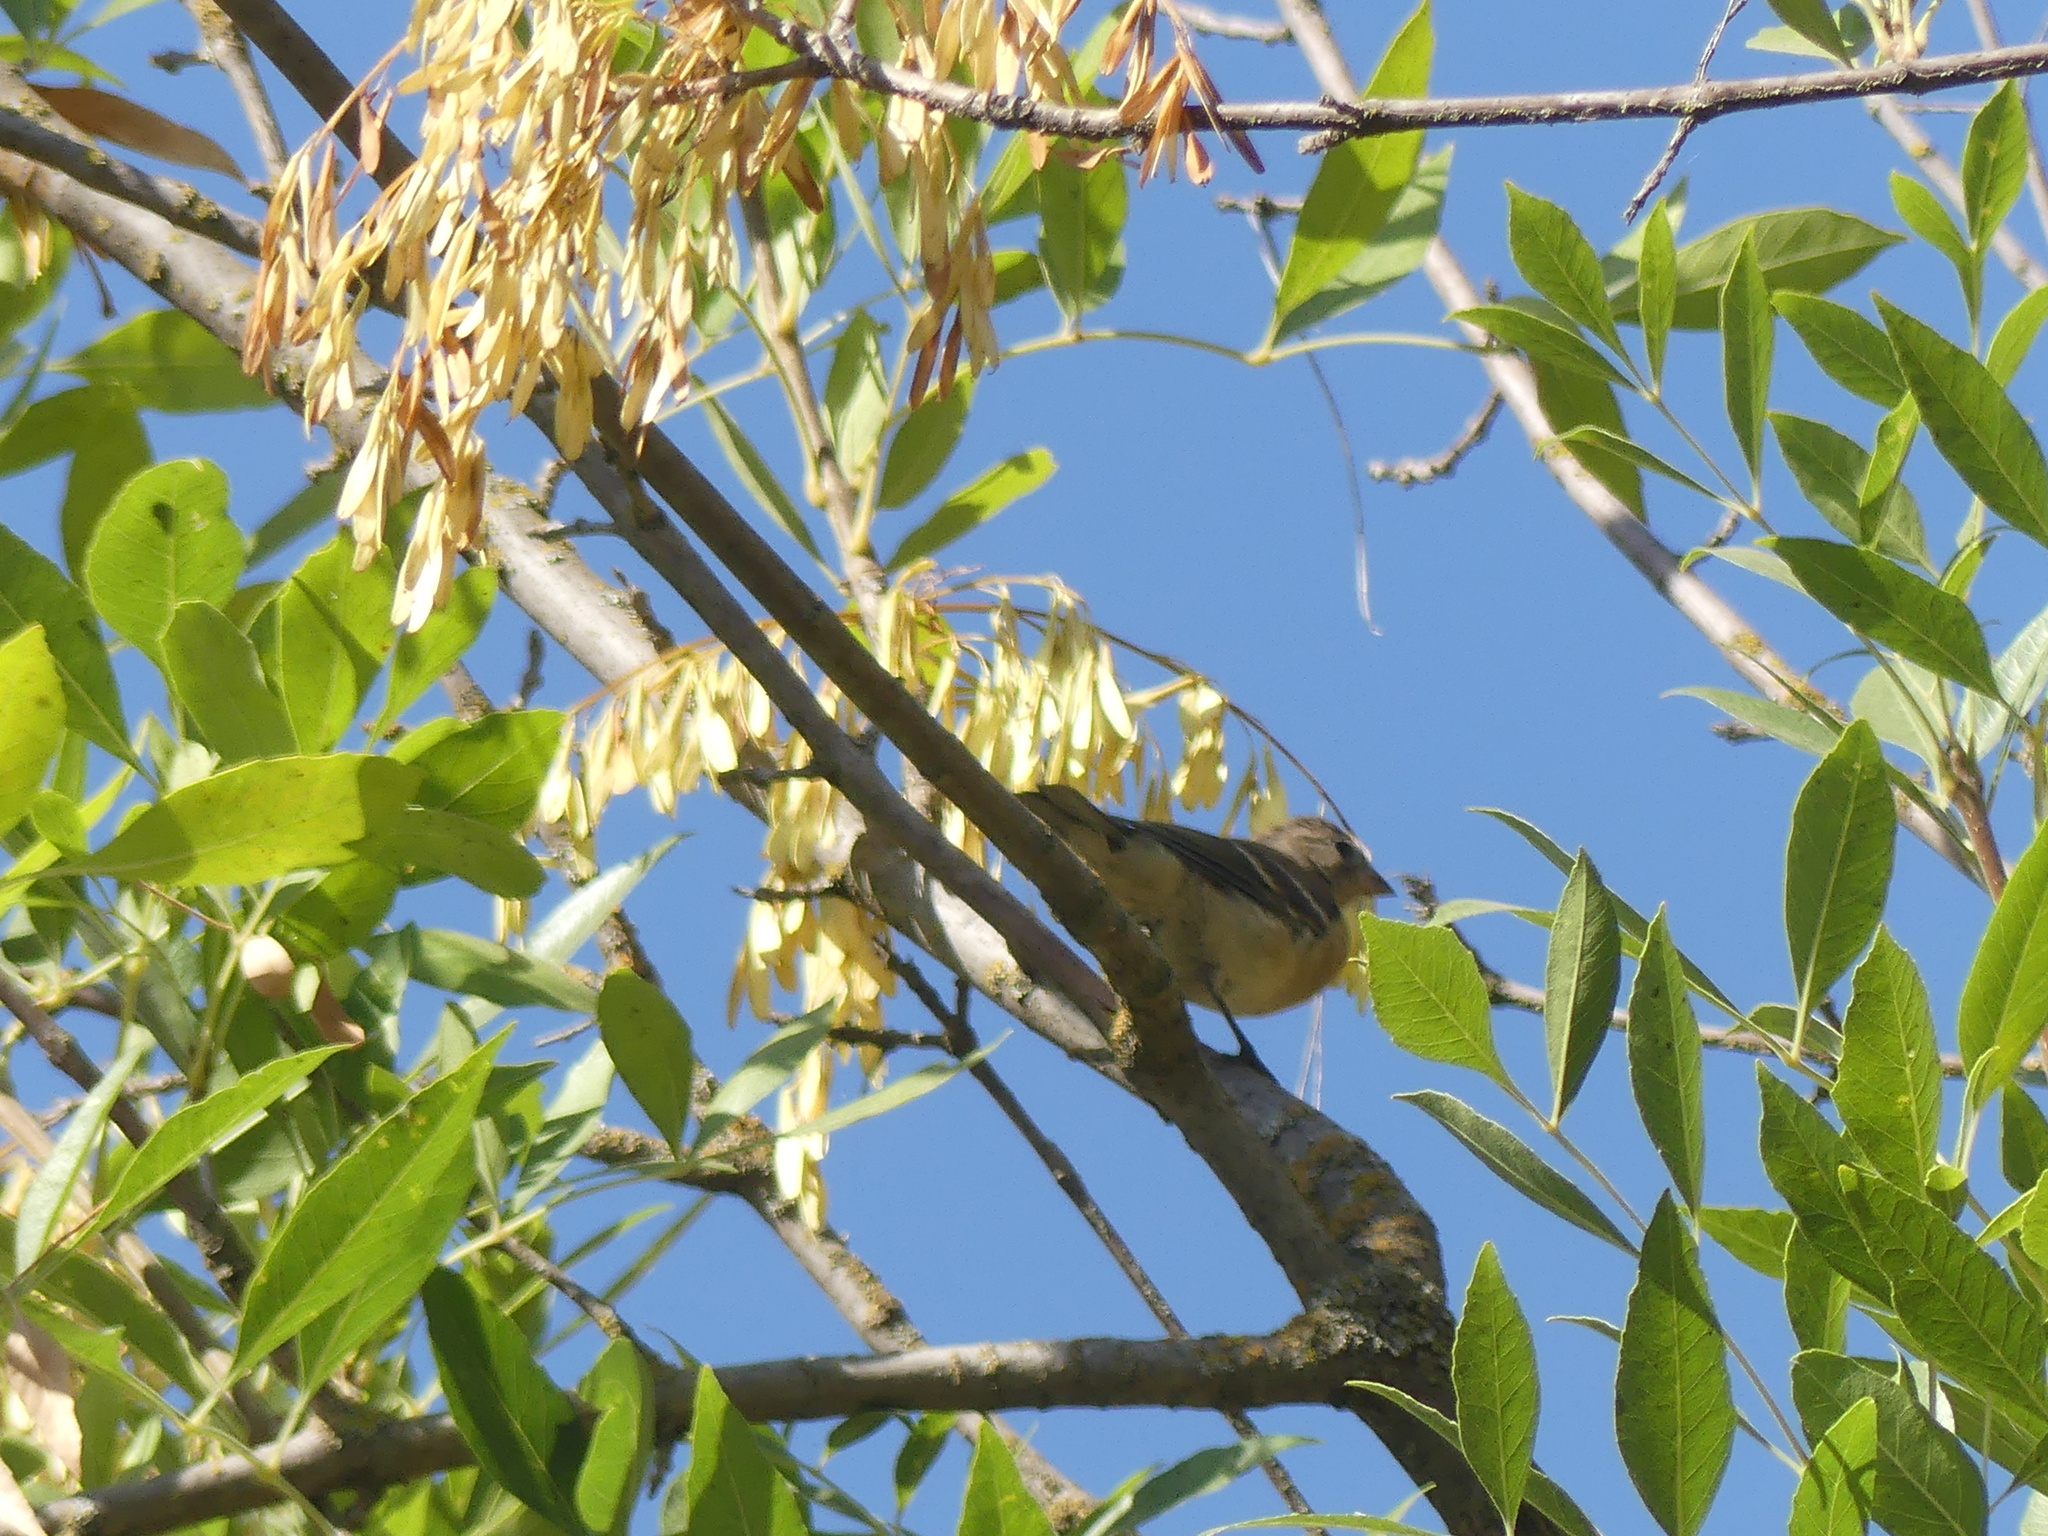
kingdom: Animalia
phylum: Chordata
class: Aves
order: Passeriformes
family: Cardinalidae
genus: Passerina
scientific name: Passerina amoena
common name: Lazuli bunting
